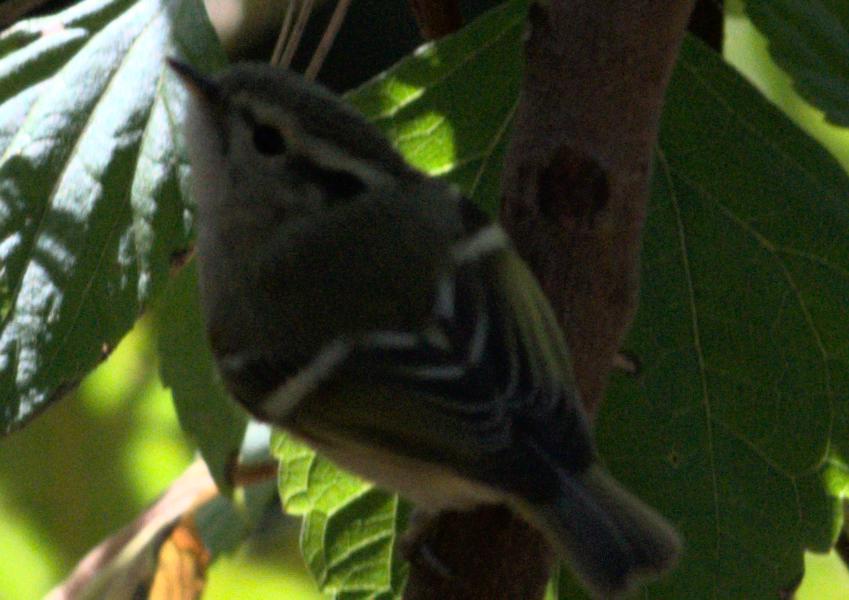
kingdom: Animalia
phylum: Chordata
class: Aves
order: Passeriformes
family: Phylloscopidae
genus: Phylloscopus
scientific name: Phylloscopus chloronotus
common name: Lemon-rumped warbler
